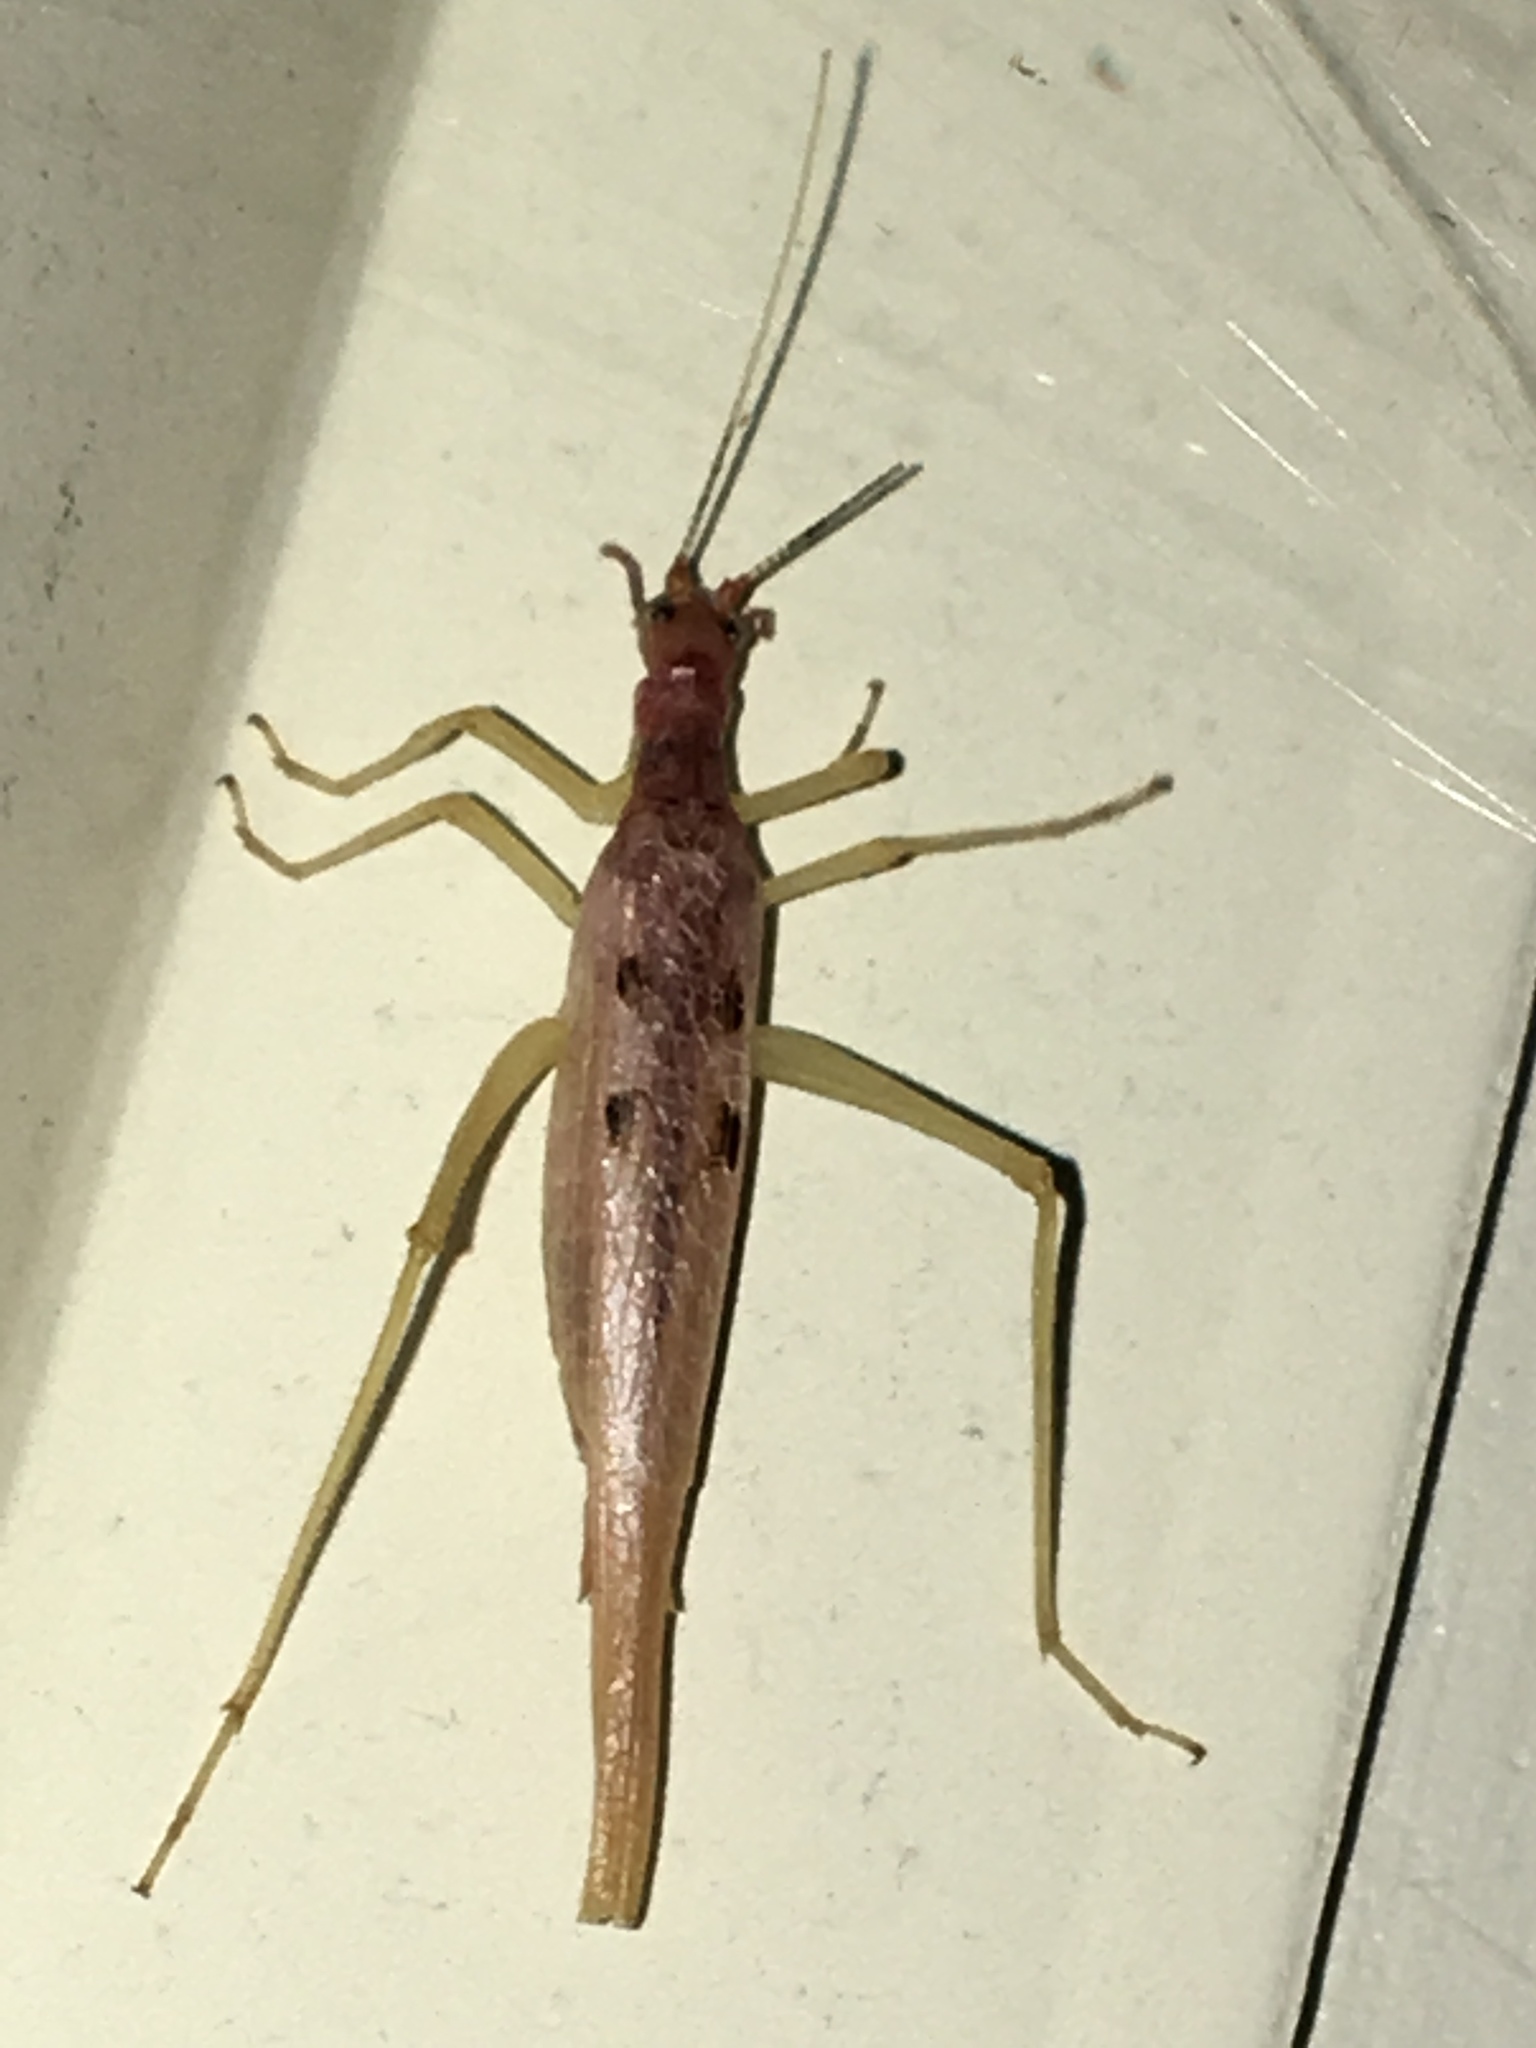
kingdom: Animalia
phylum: Arthropoda
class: Insecta
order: Orthoptera
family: Gryllidae
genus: Neoxabea
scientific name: Neoxabea bipunctata
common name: Two-spotted tree cricket
